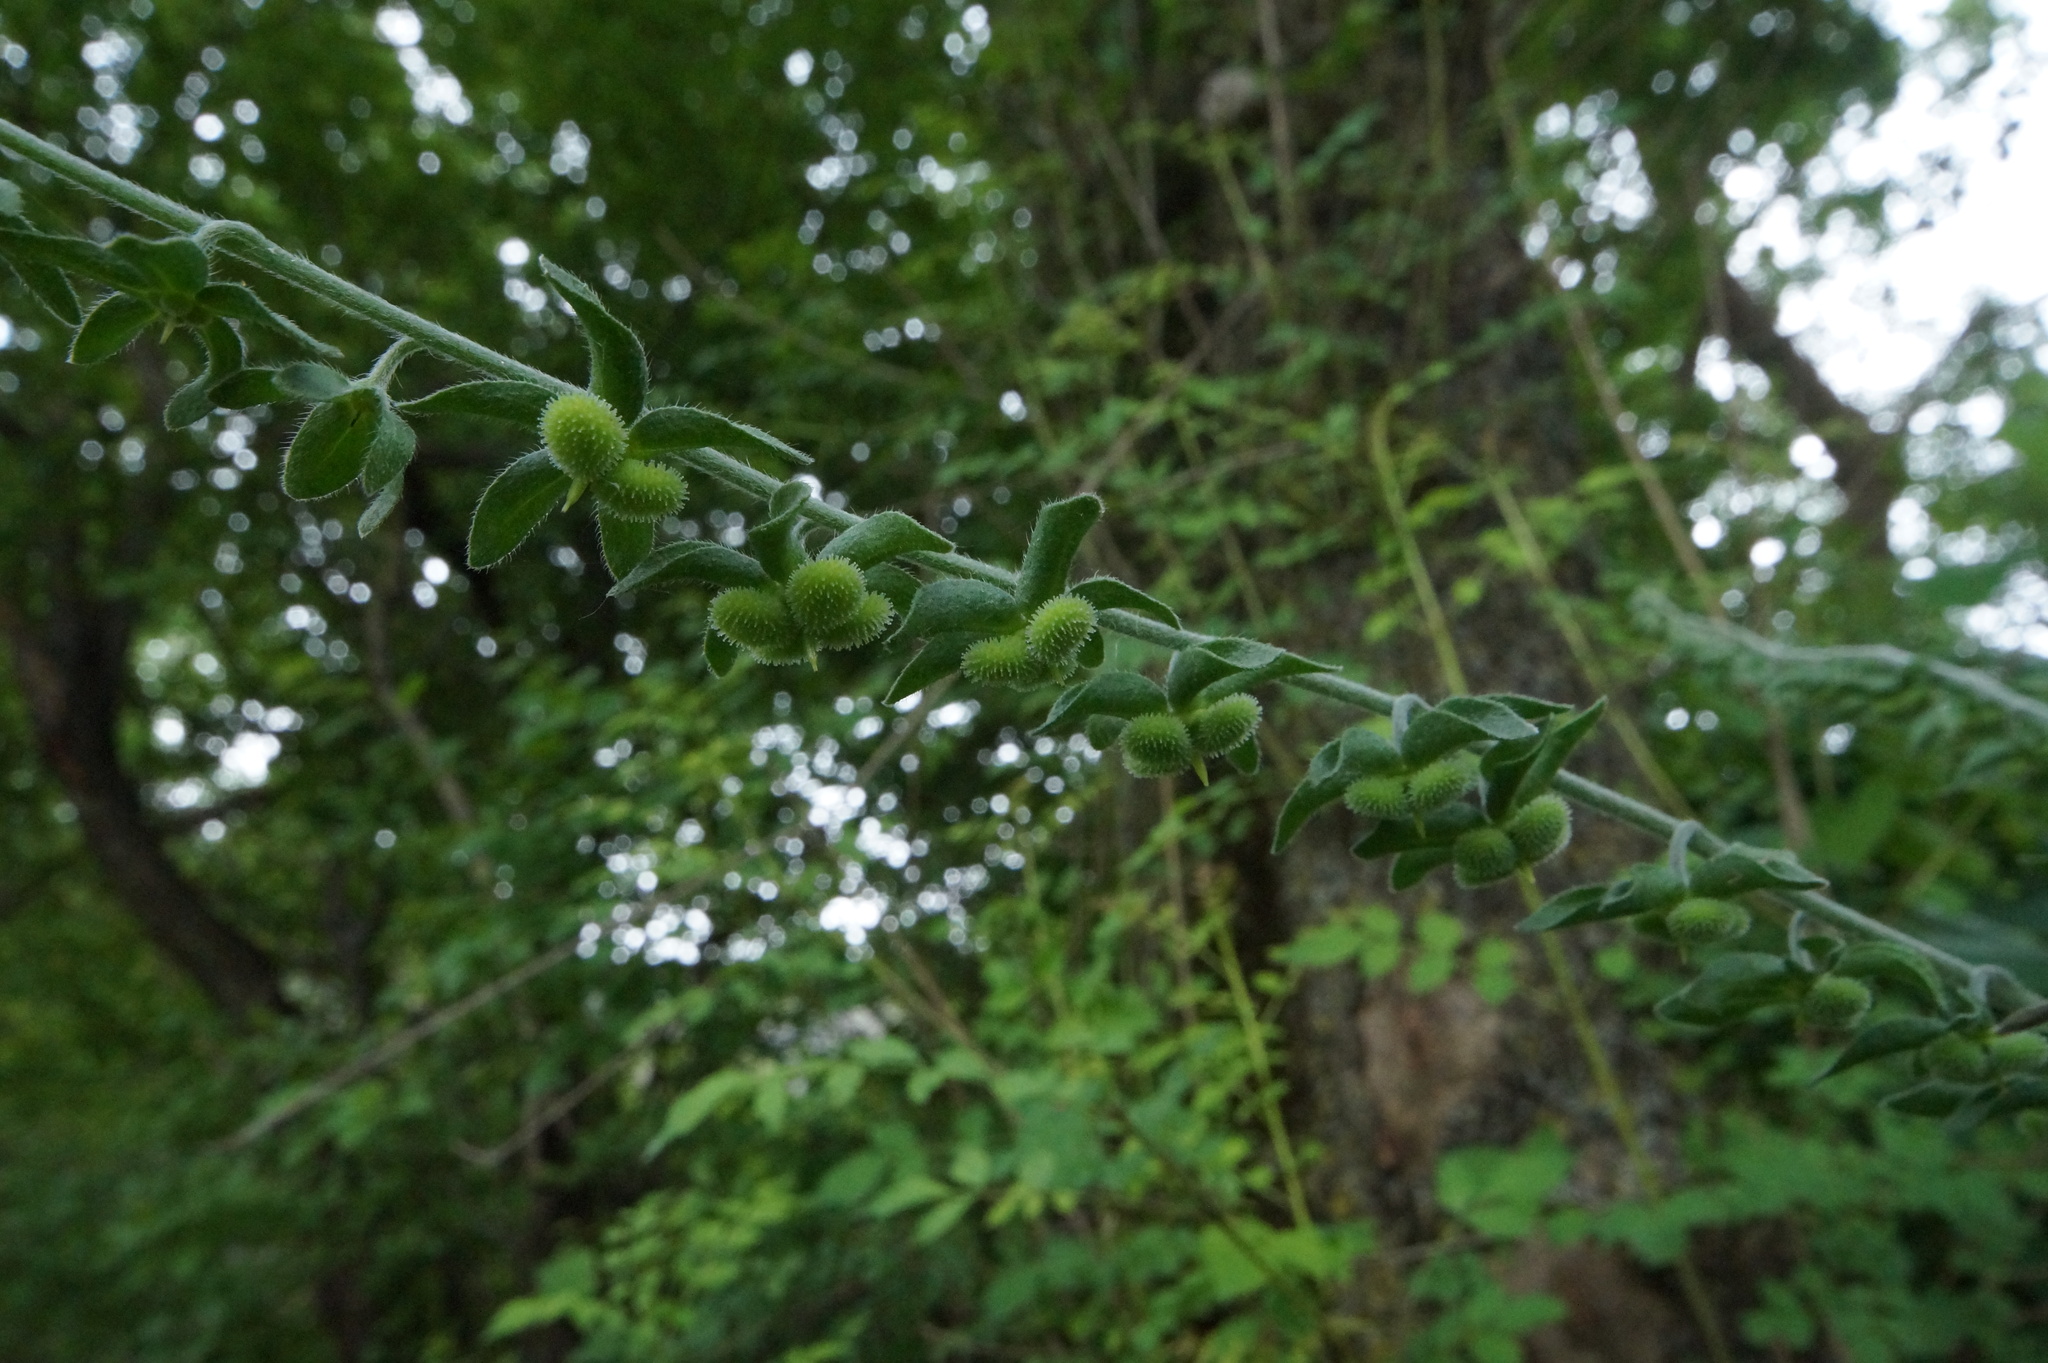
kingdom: Plantae
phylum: Tracheophyta
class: Magnoliopsida
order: Boraginales
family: Boraginaceae
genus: Cynoglossum
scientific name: Cynoglossum creticum
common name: Blue hound's tongue
